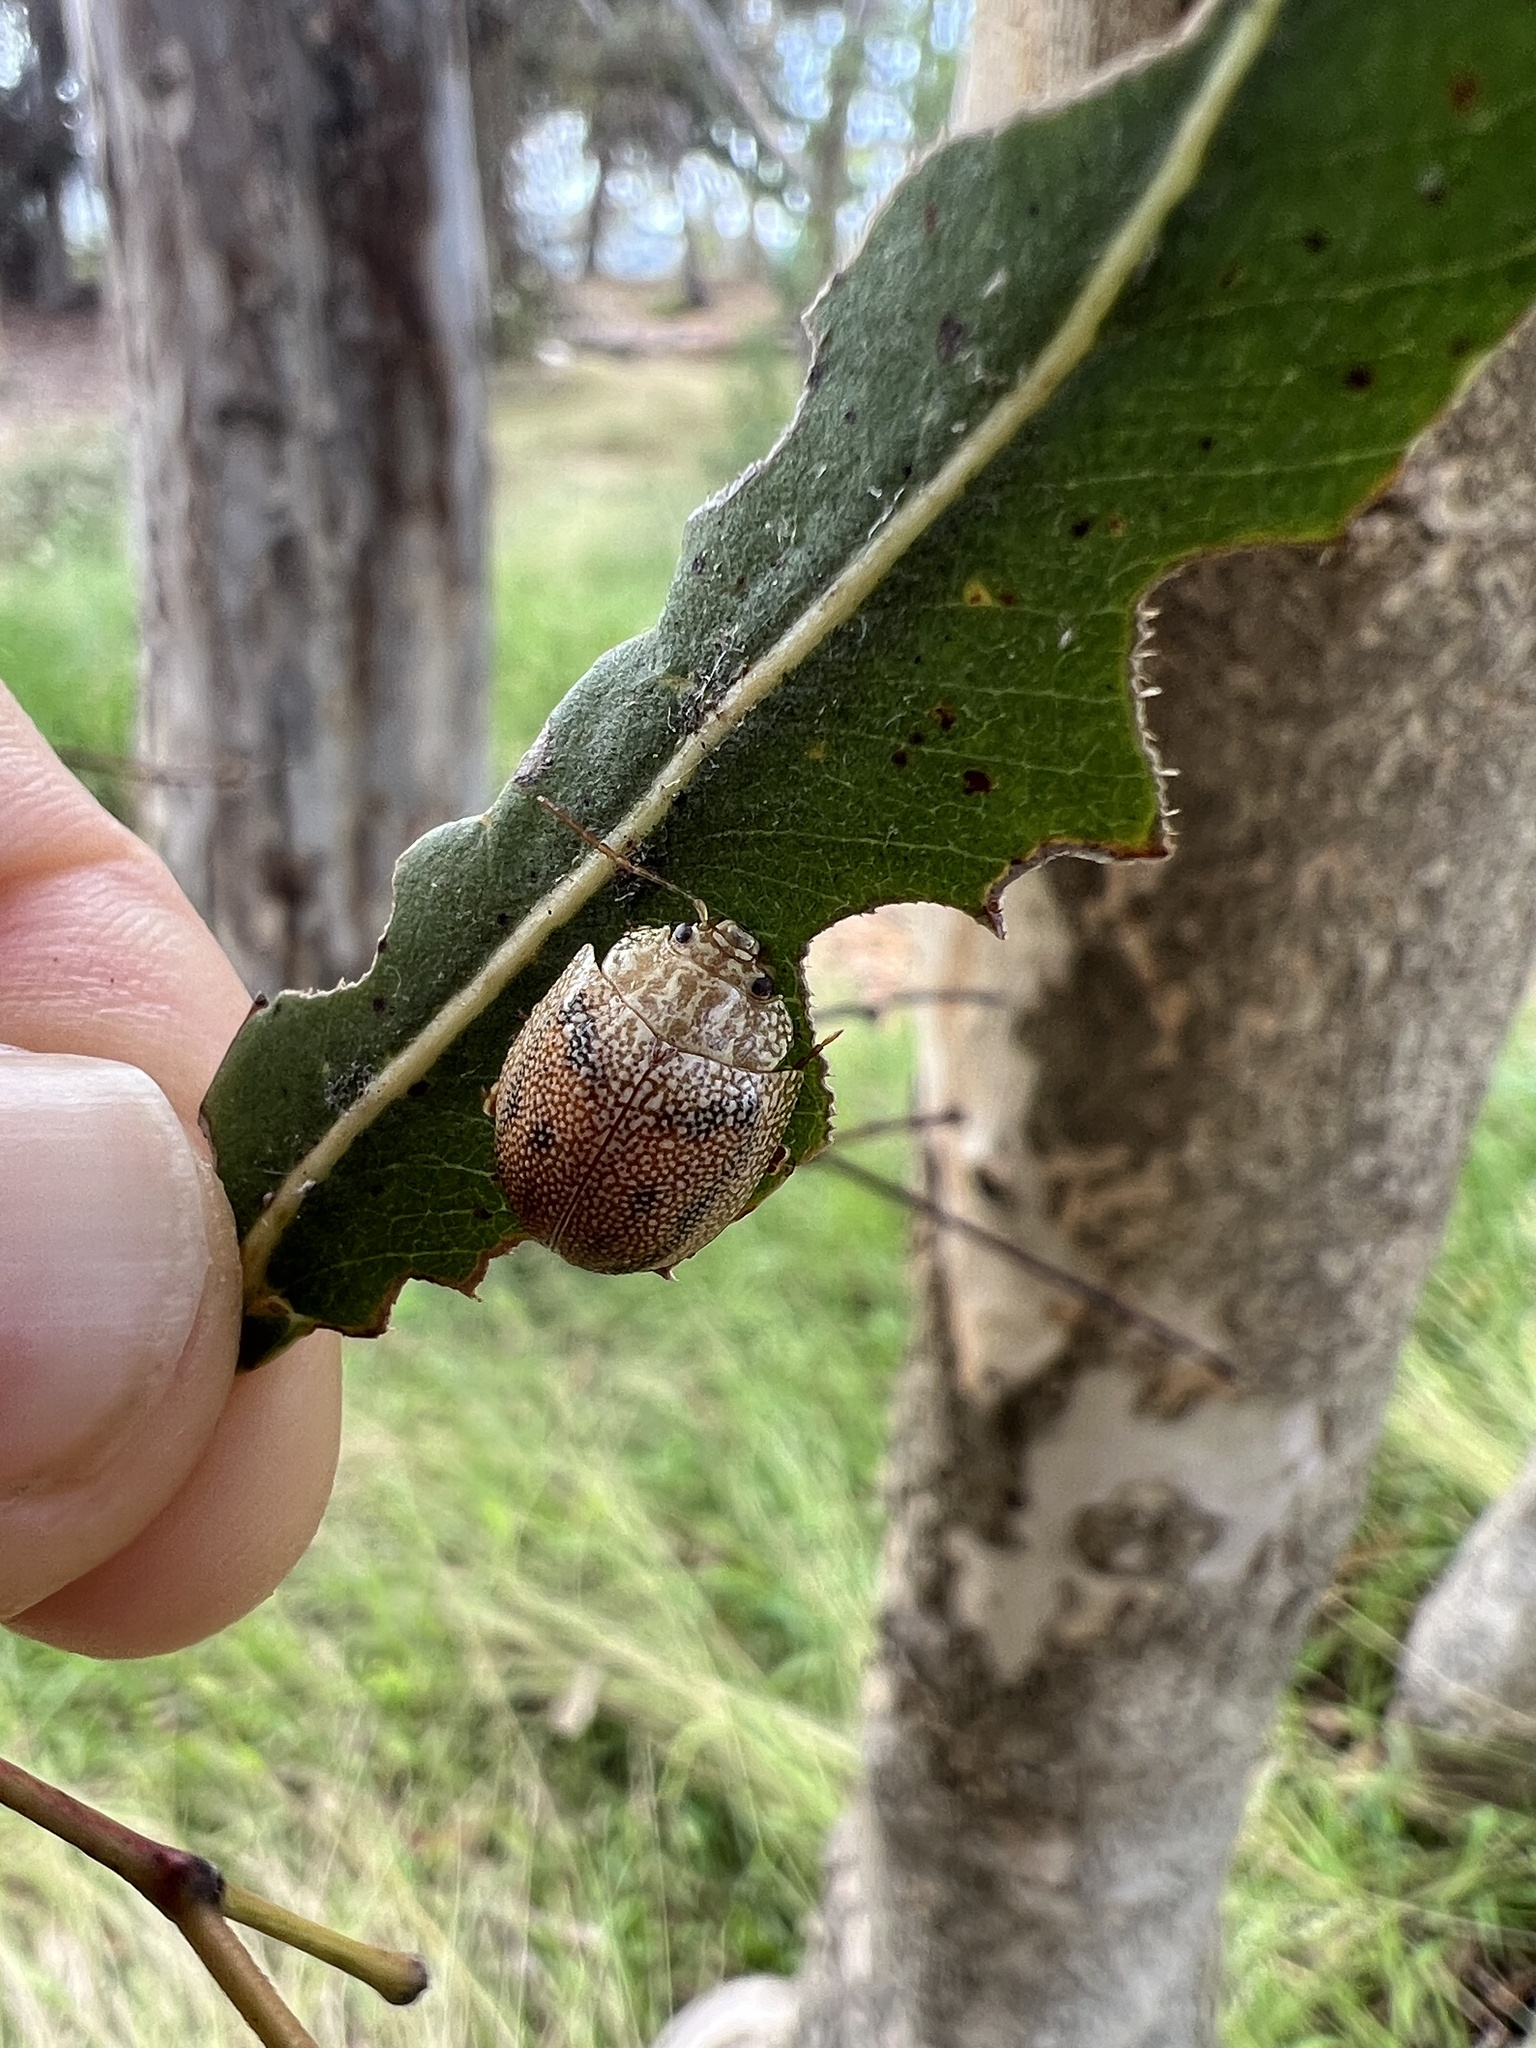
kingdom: Animalia
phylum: Arthropoda
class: Insecta
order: Coleoptera
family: Chrysomelidae
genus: Paropsis
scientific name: Paropsis
